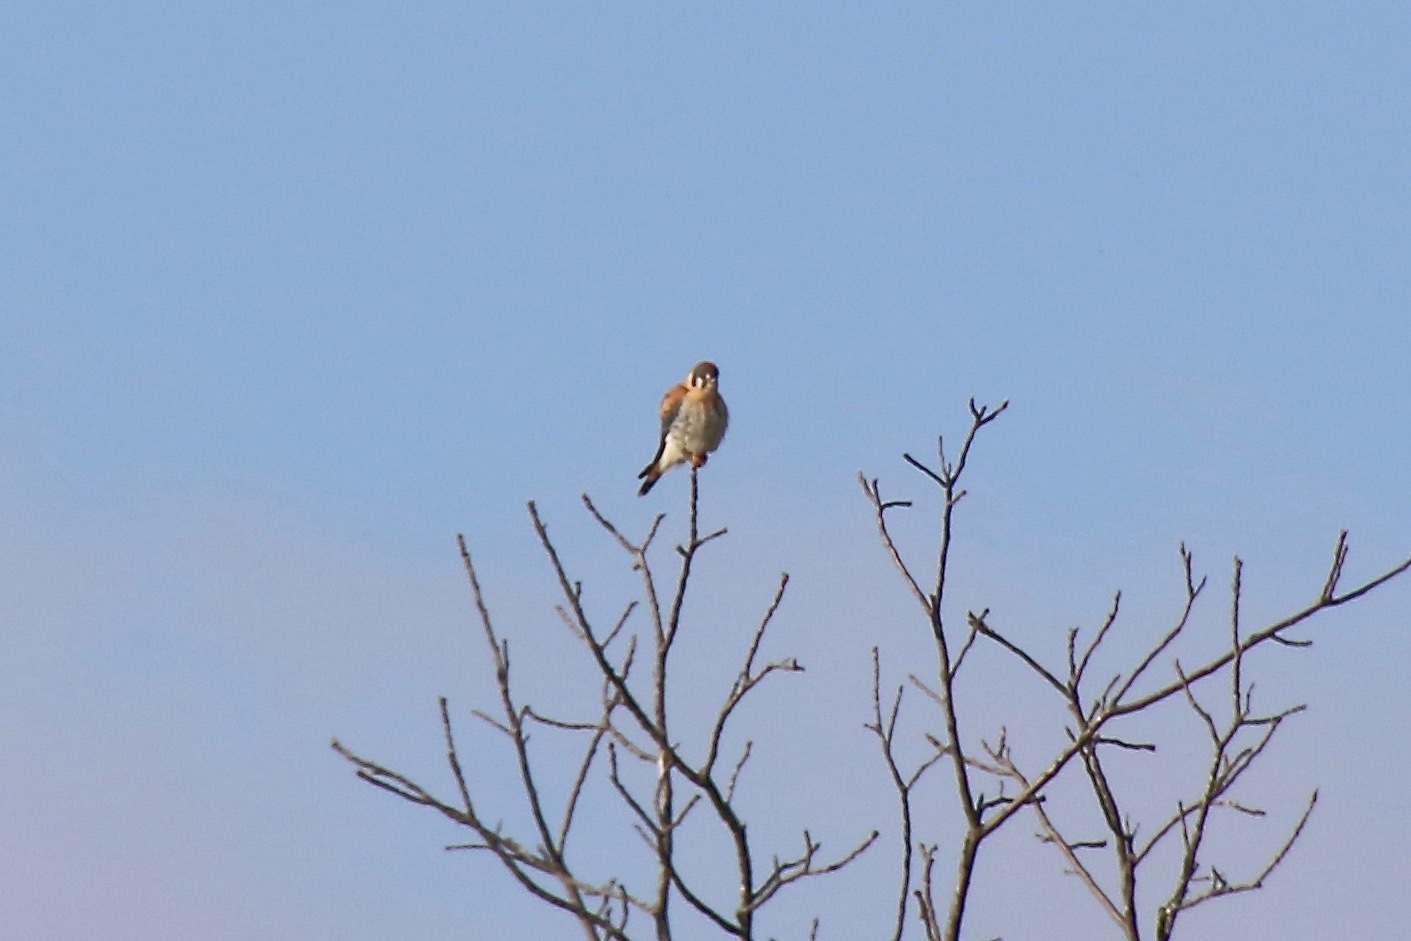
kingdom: Animalia
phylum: Chordata
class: Aves
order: Falconiformes
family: Falconidae
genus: Falco
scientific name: Falco sparverius
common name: American kestrel
